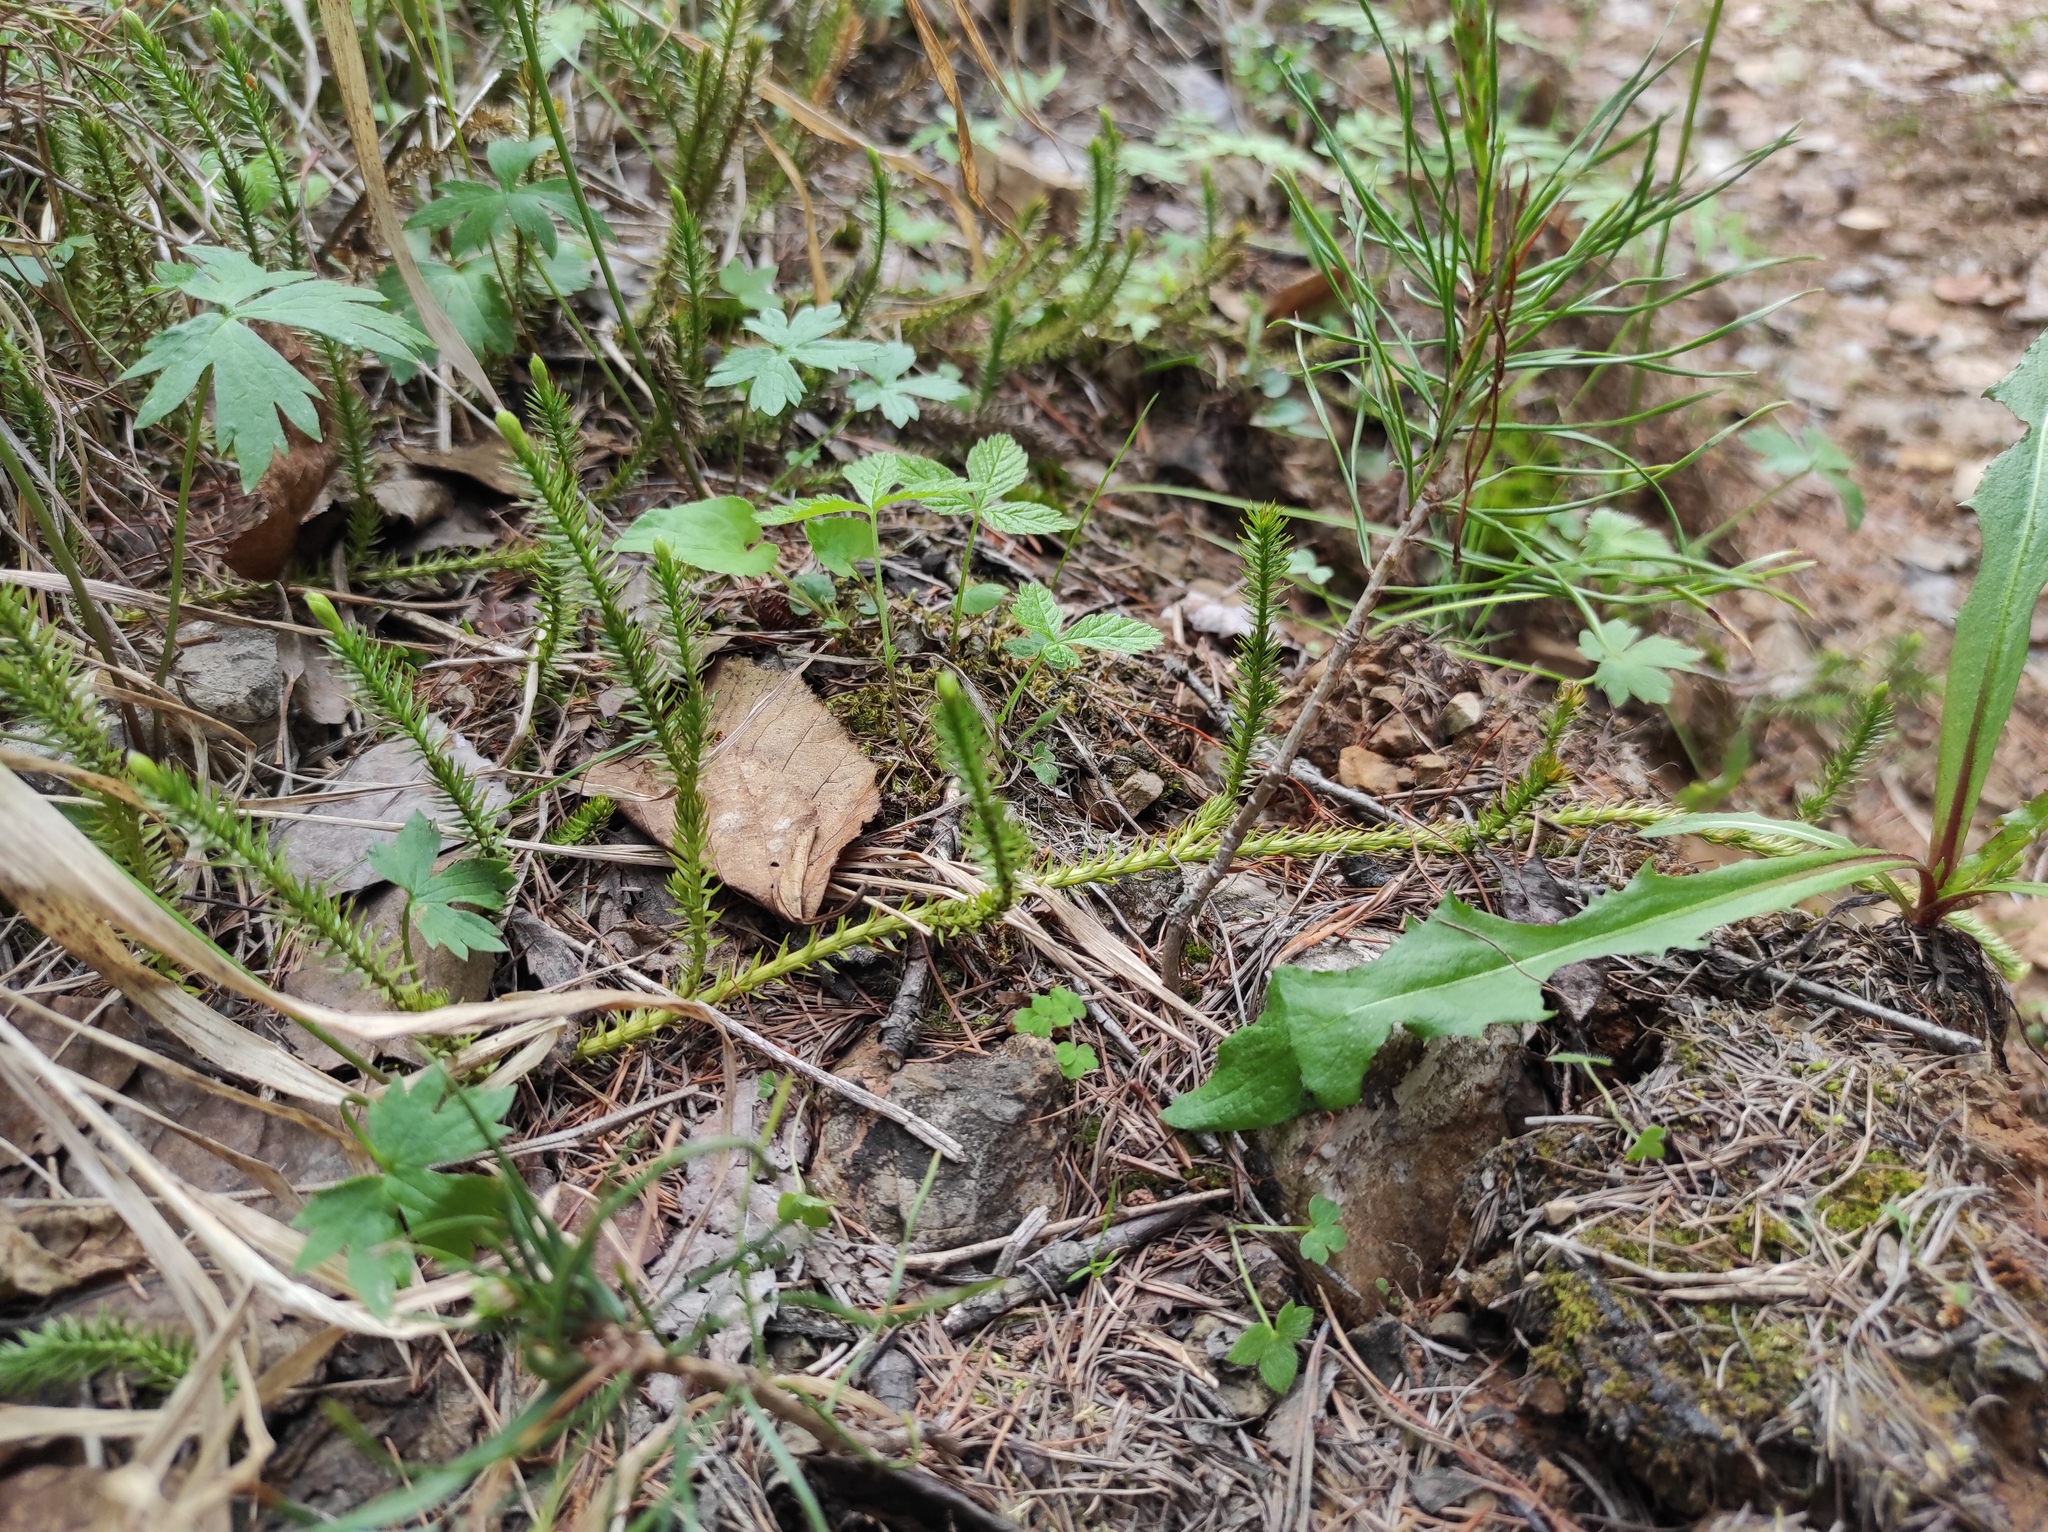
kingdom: Plantae
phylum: Tracheophyta
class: Pinopsida
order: Pinales
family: Pinaceae
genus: Pinus
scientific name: Pinus sylvestris
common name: Scots pine
